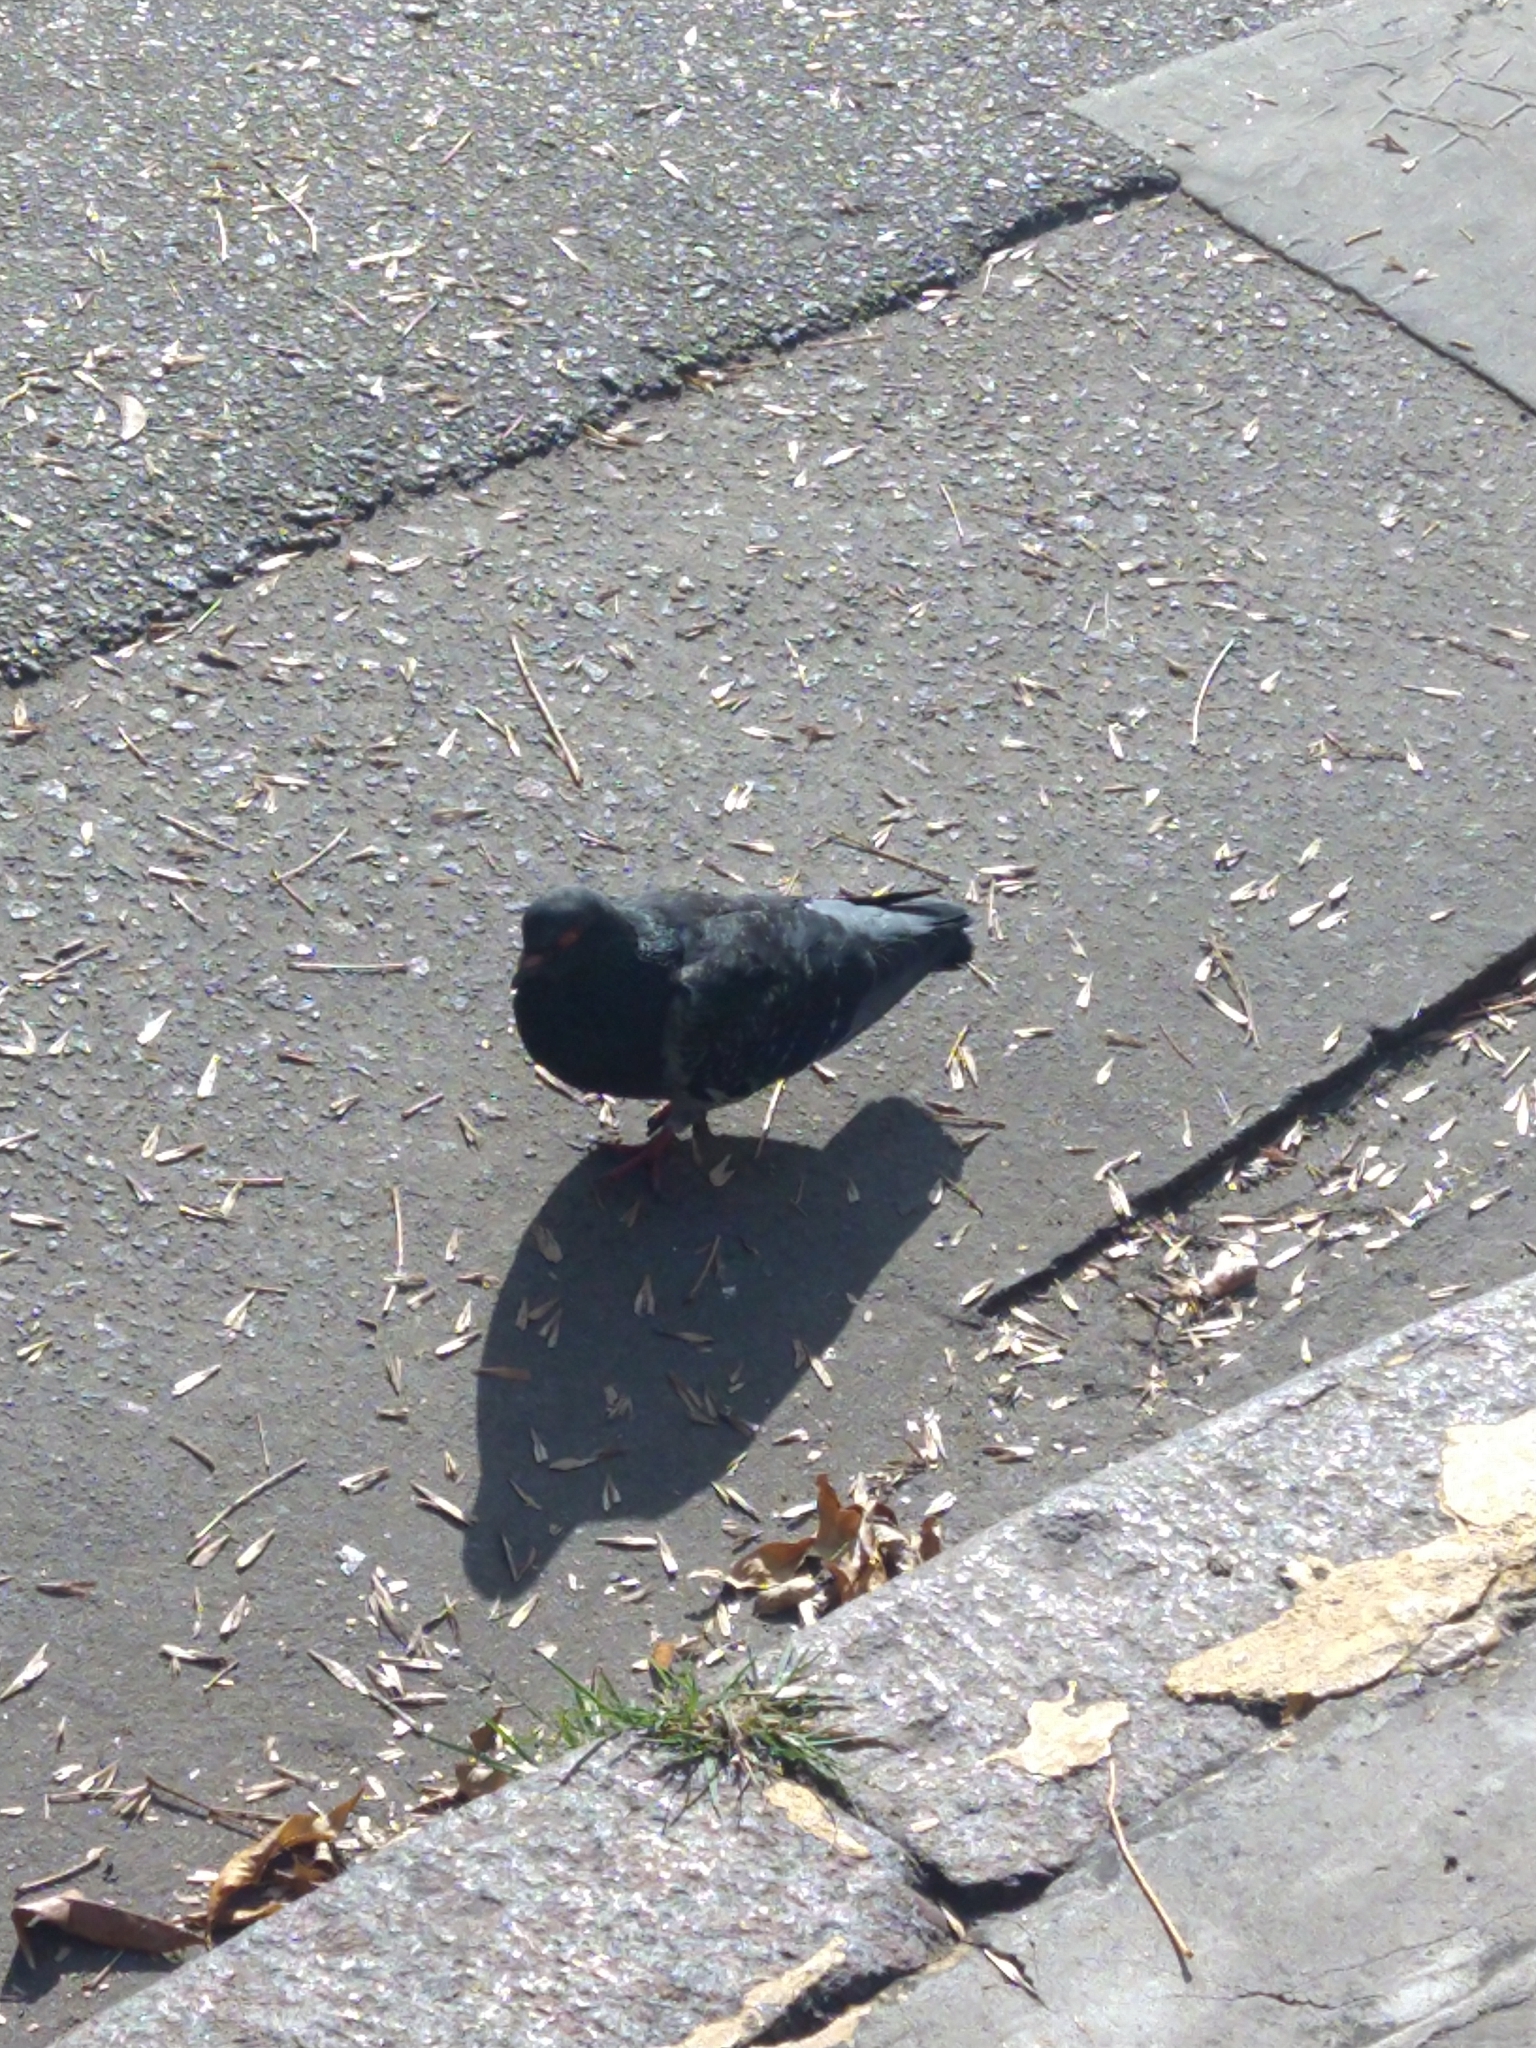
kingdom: Animalia
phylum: Chordata
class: Aves
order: Columbiformes
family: Columbidae
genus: Columba
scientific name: Columba livia
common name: Rock pigeon
